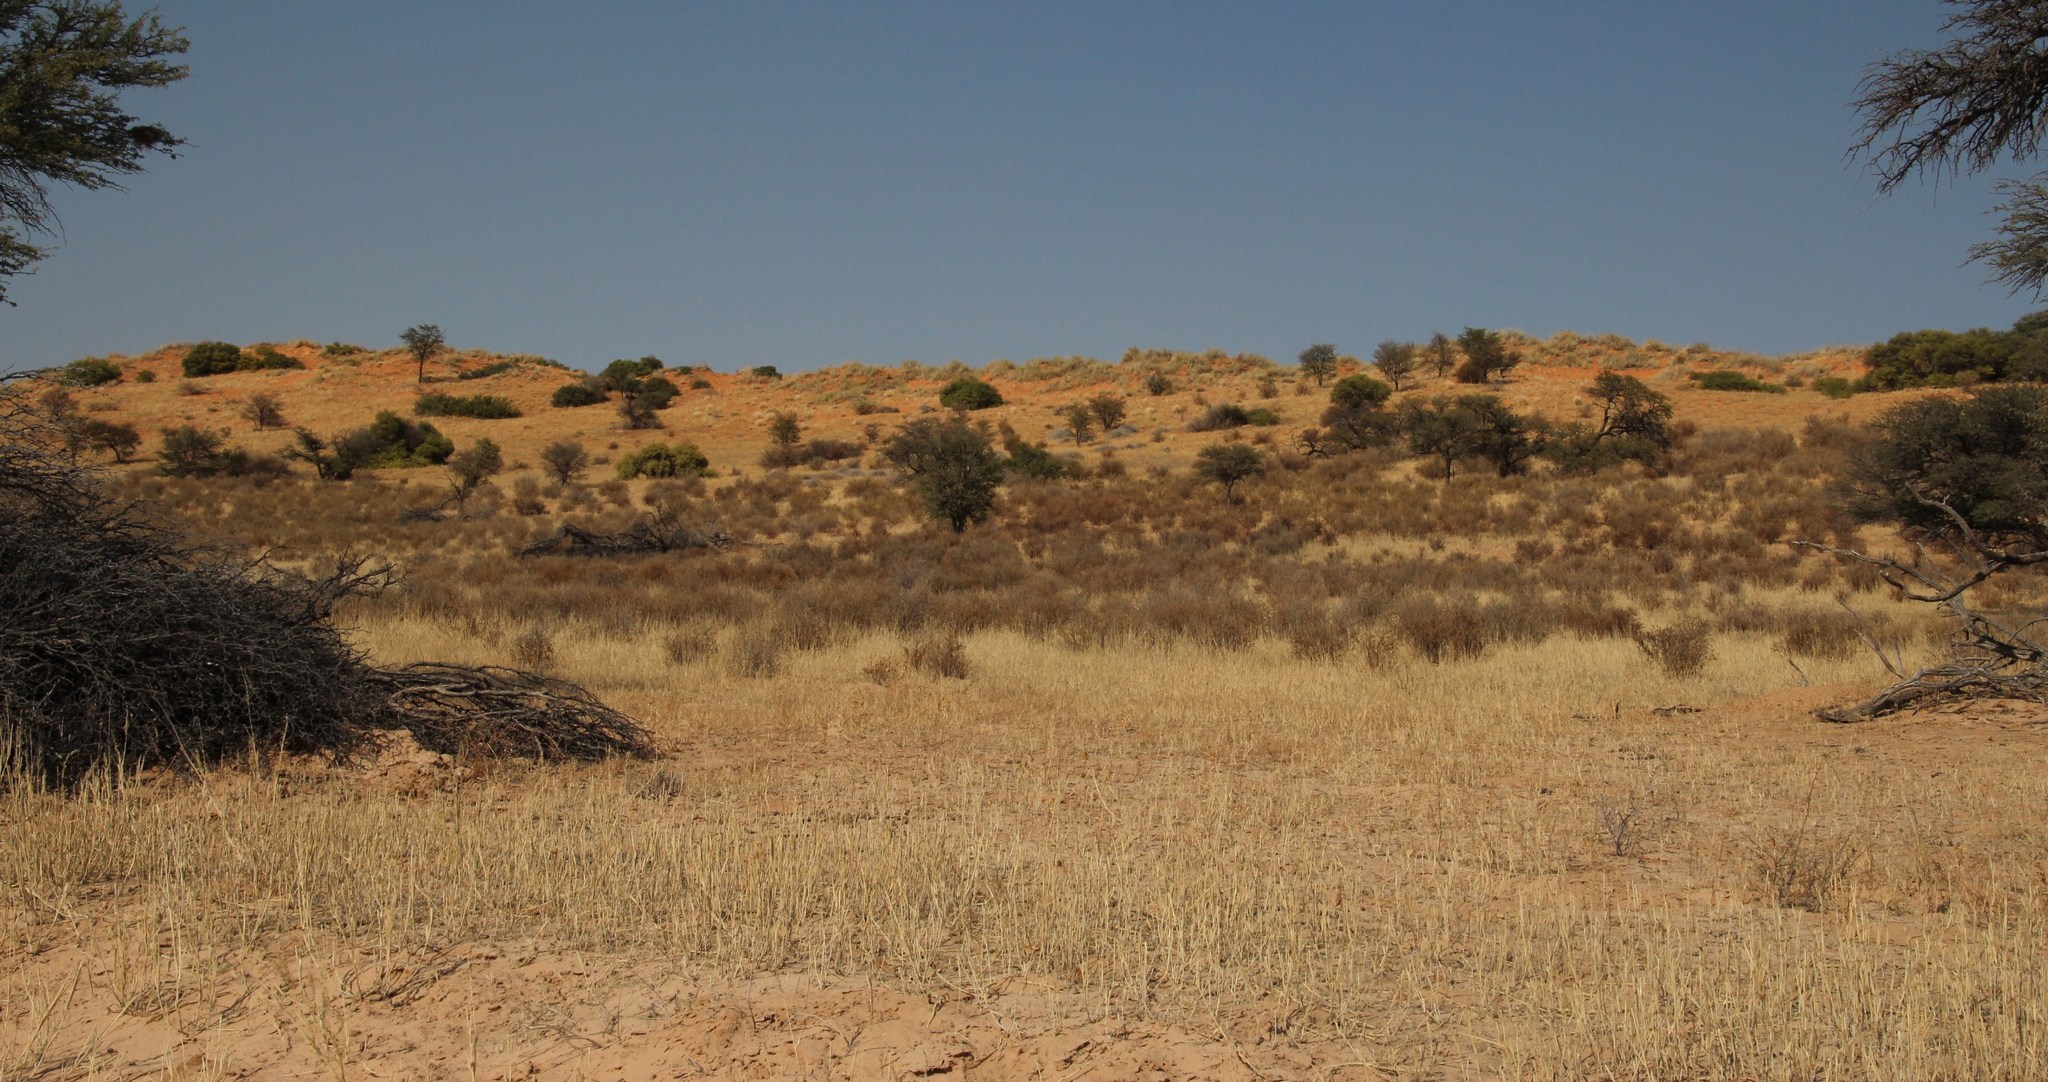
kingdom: Plantae
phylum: Tracheophyta
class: Magnoliopsida
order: Lamiales
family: Bignoniaceae
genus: Rhigozum
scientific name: Rhigozum trichotomum
